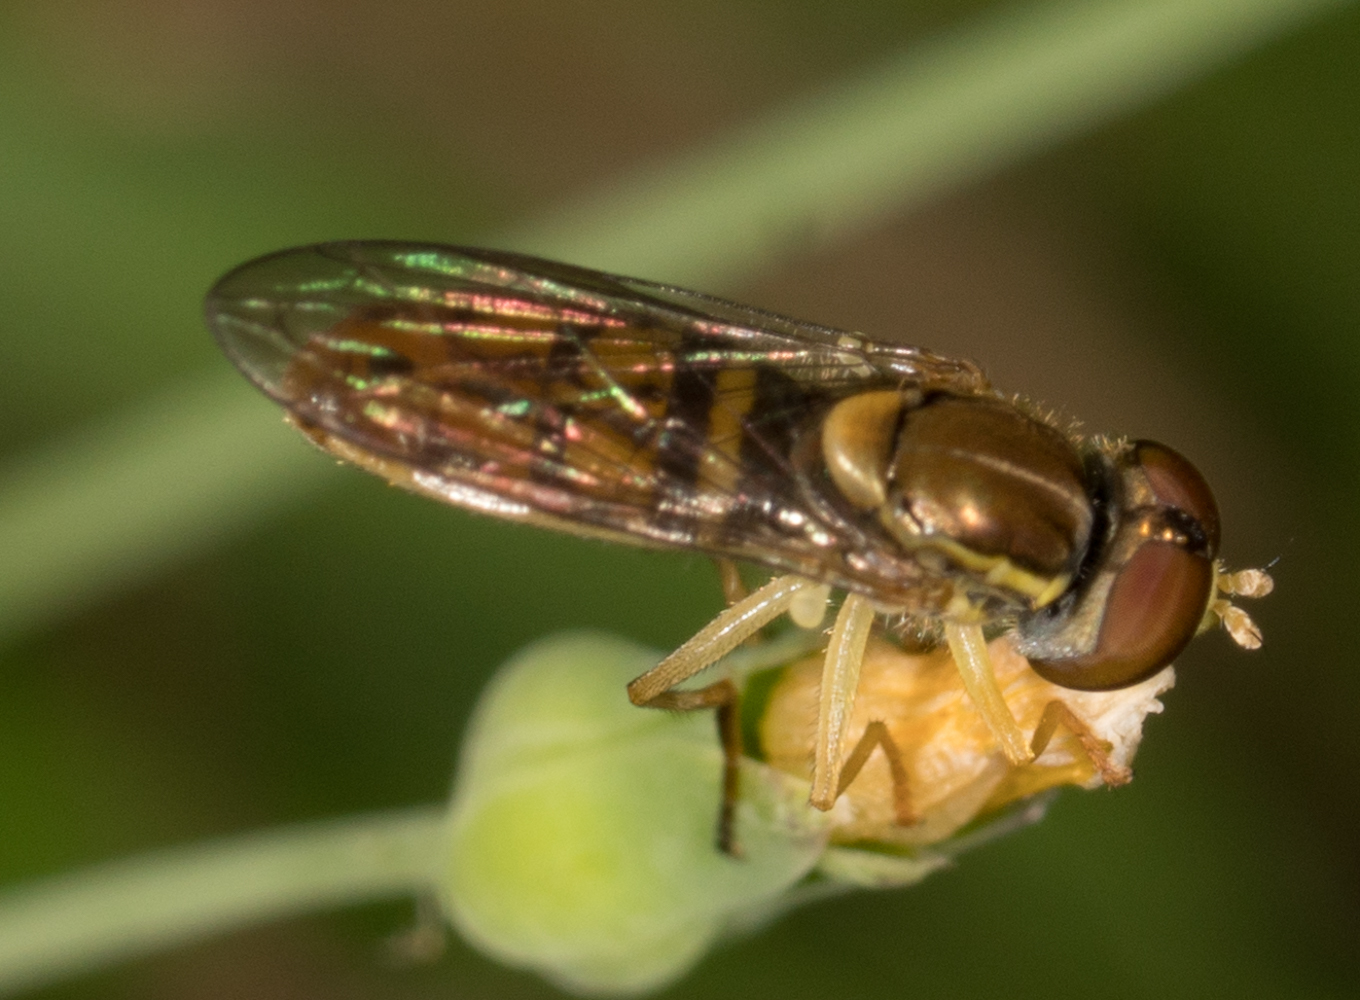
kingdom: Animalia
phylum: Arthropoda
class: Insecta
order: Diptera
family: Syrphidae
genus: Toxomerus
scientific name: Toxomerus marginatus
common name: Syrphid fly
